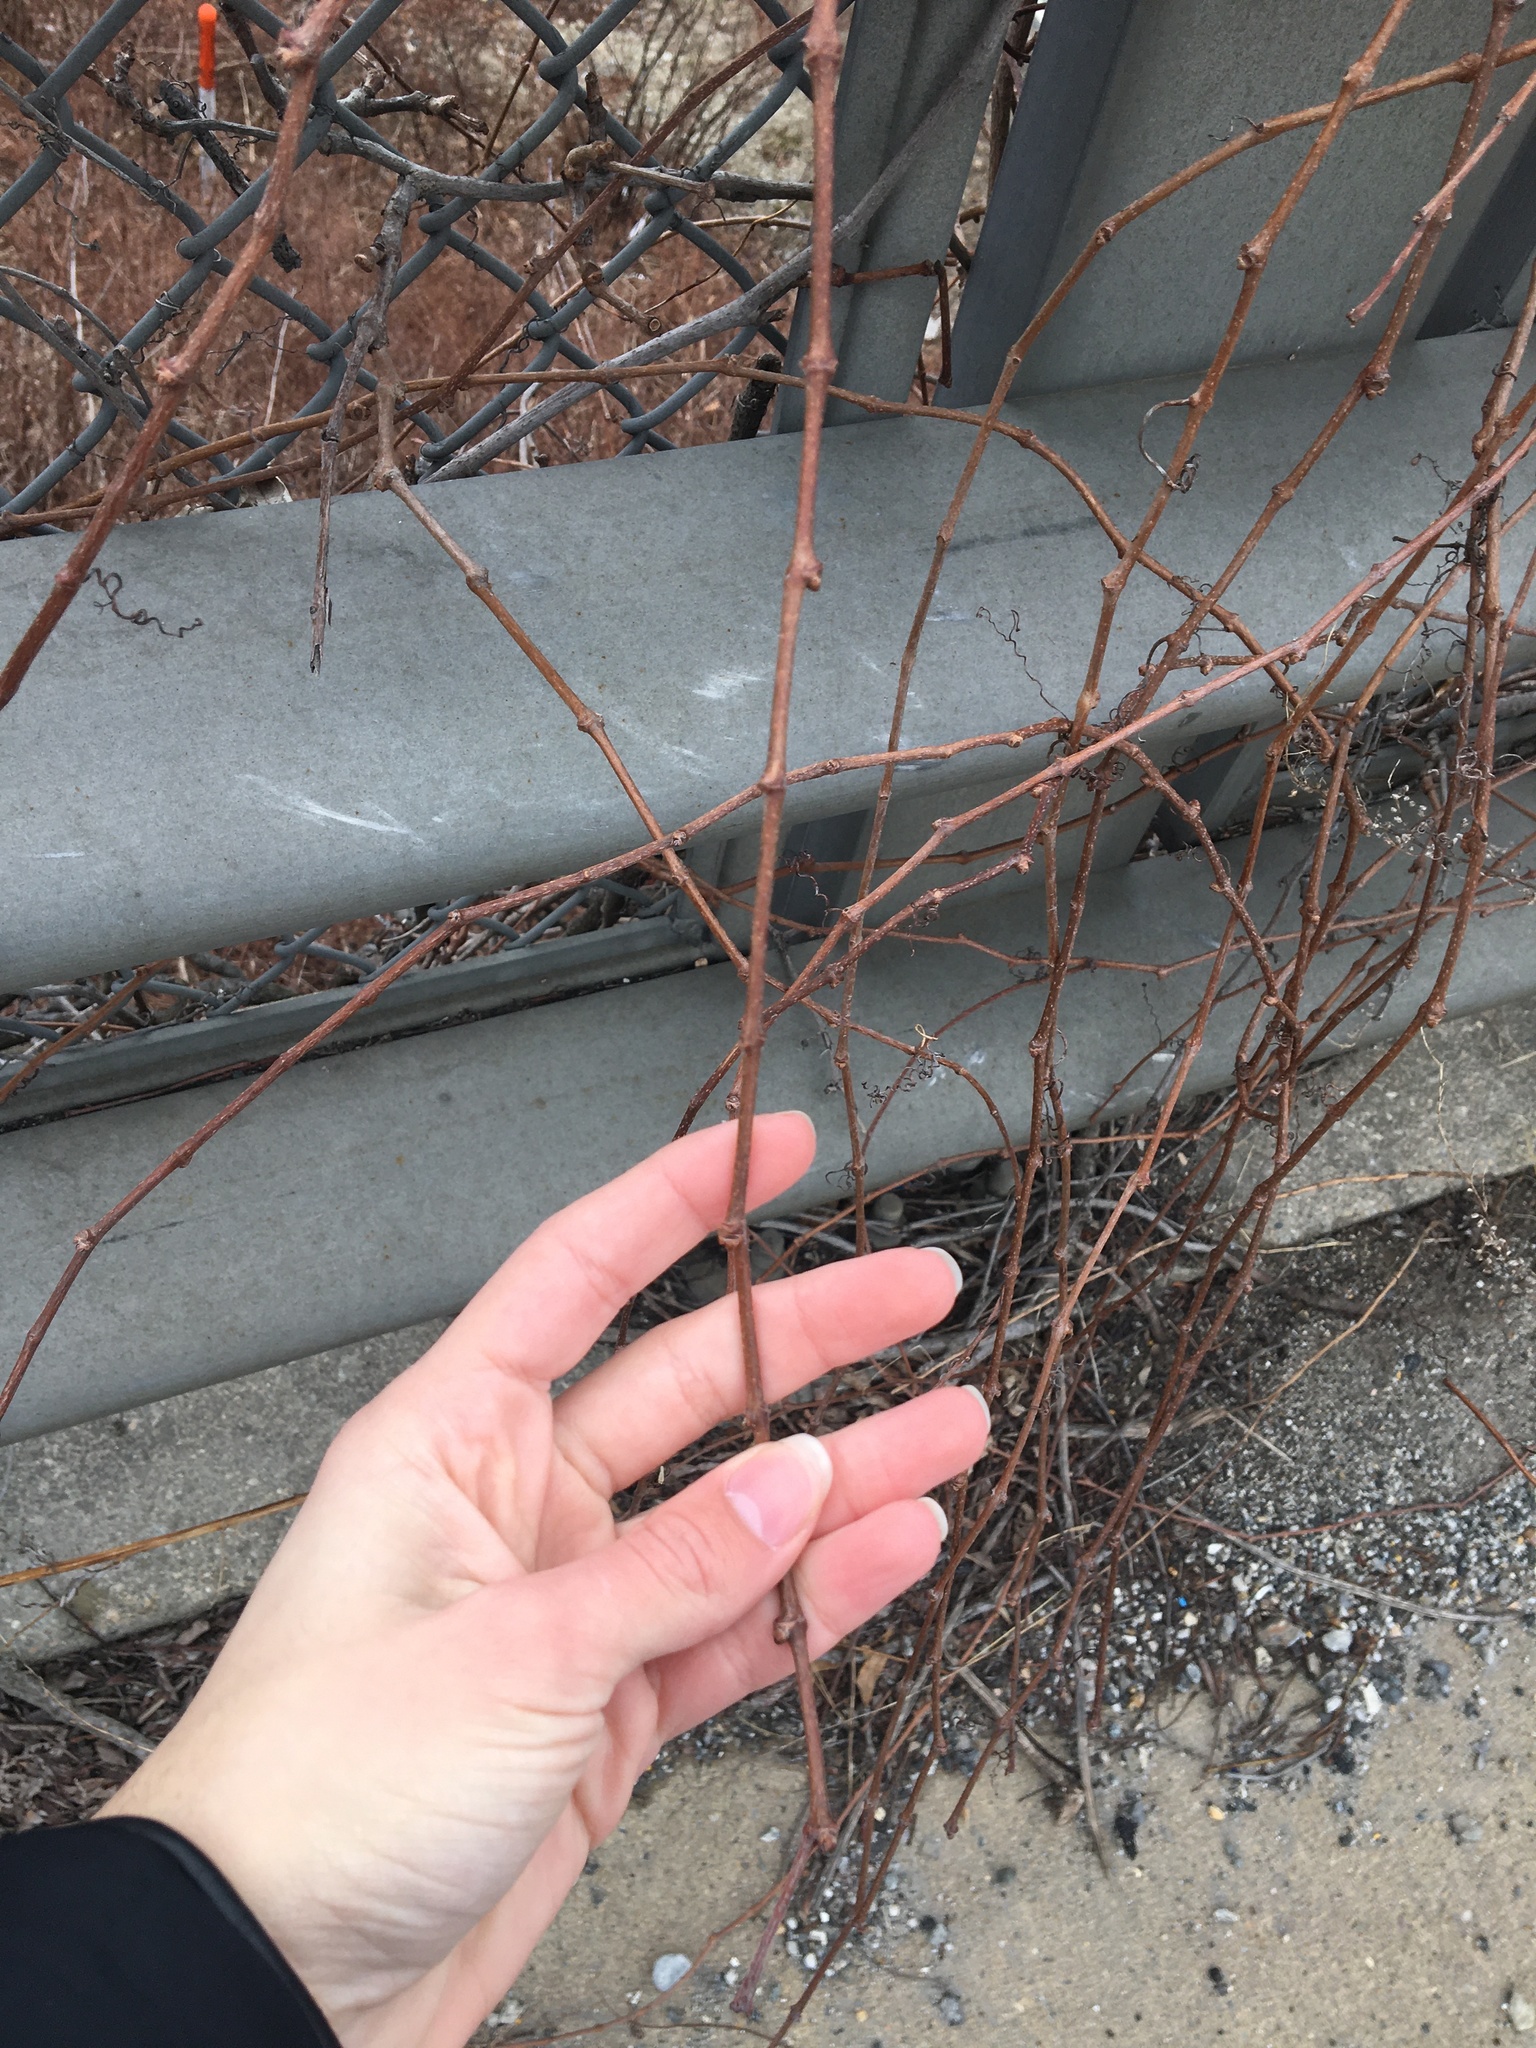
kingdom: Plantae
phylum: Tracheophyta
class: Magnoliopsida
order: Vitales
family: Vitaceae
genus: Parthenocissus
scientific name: Parthenocissus quinquefolia
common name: Virginia-creeper
